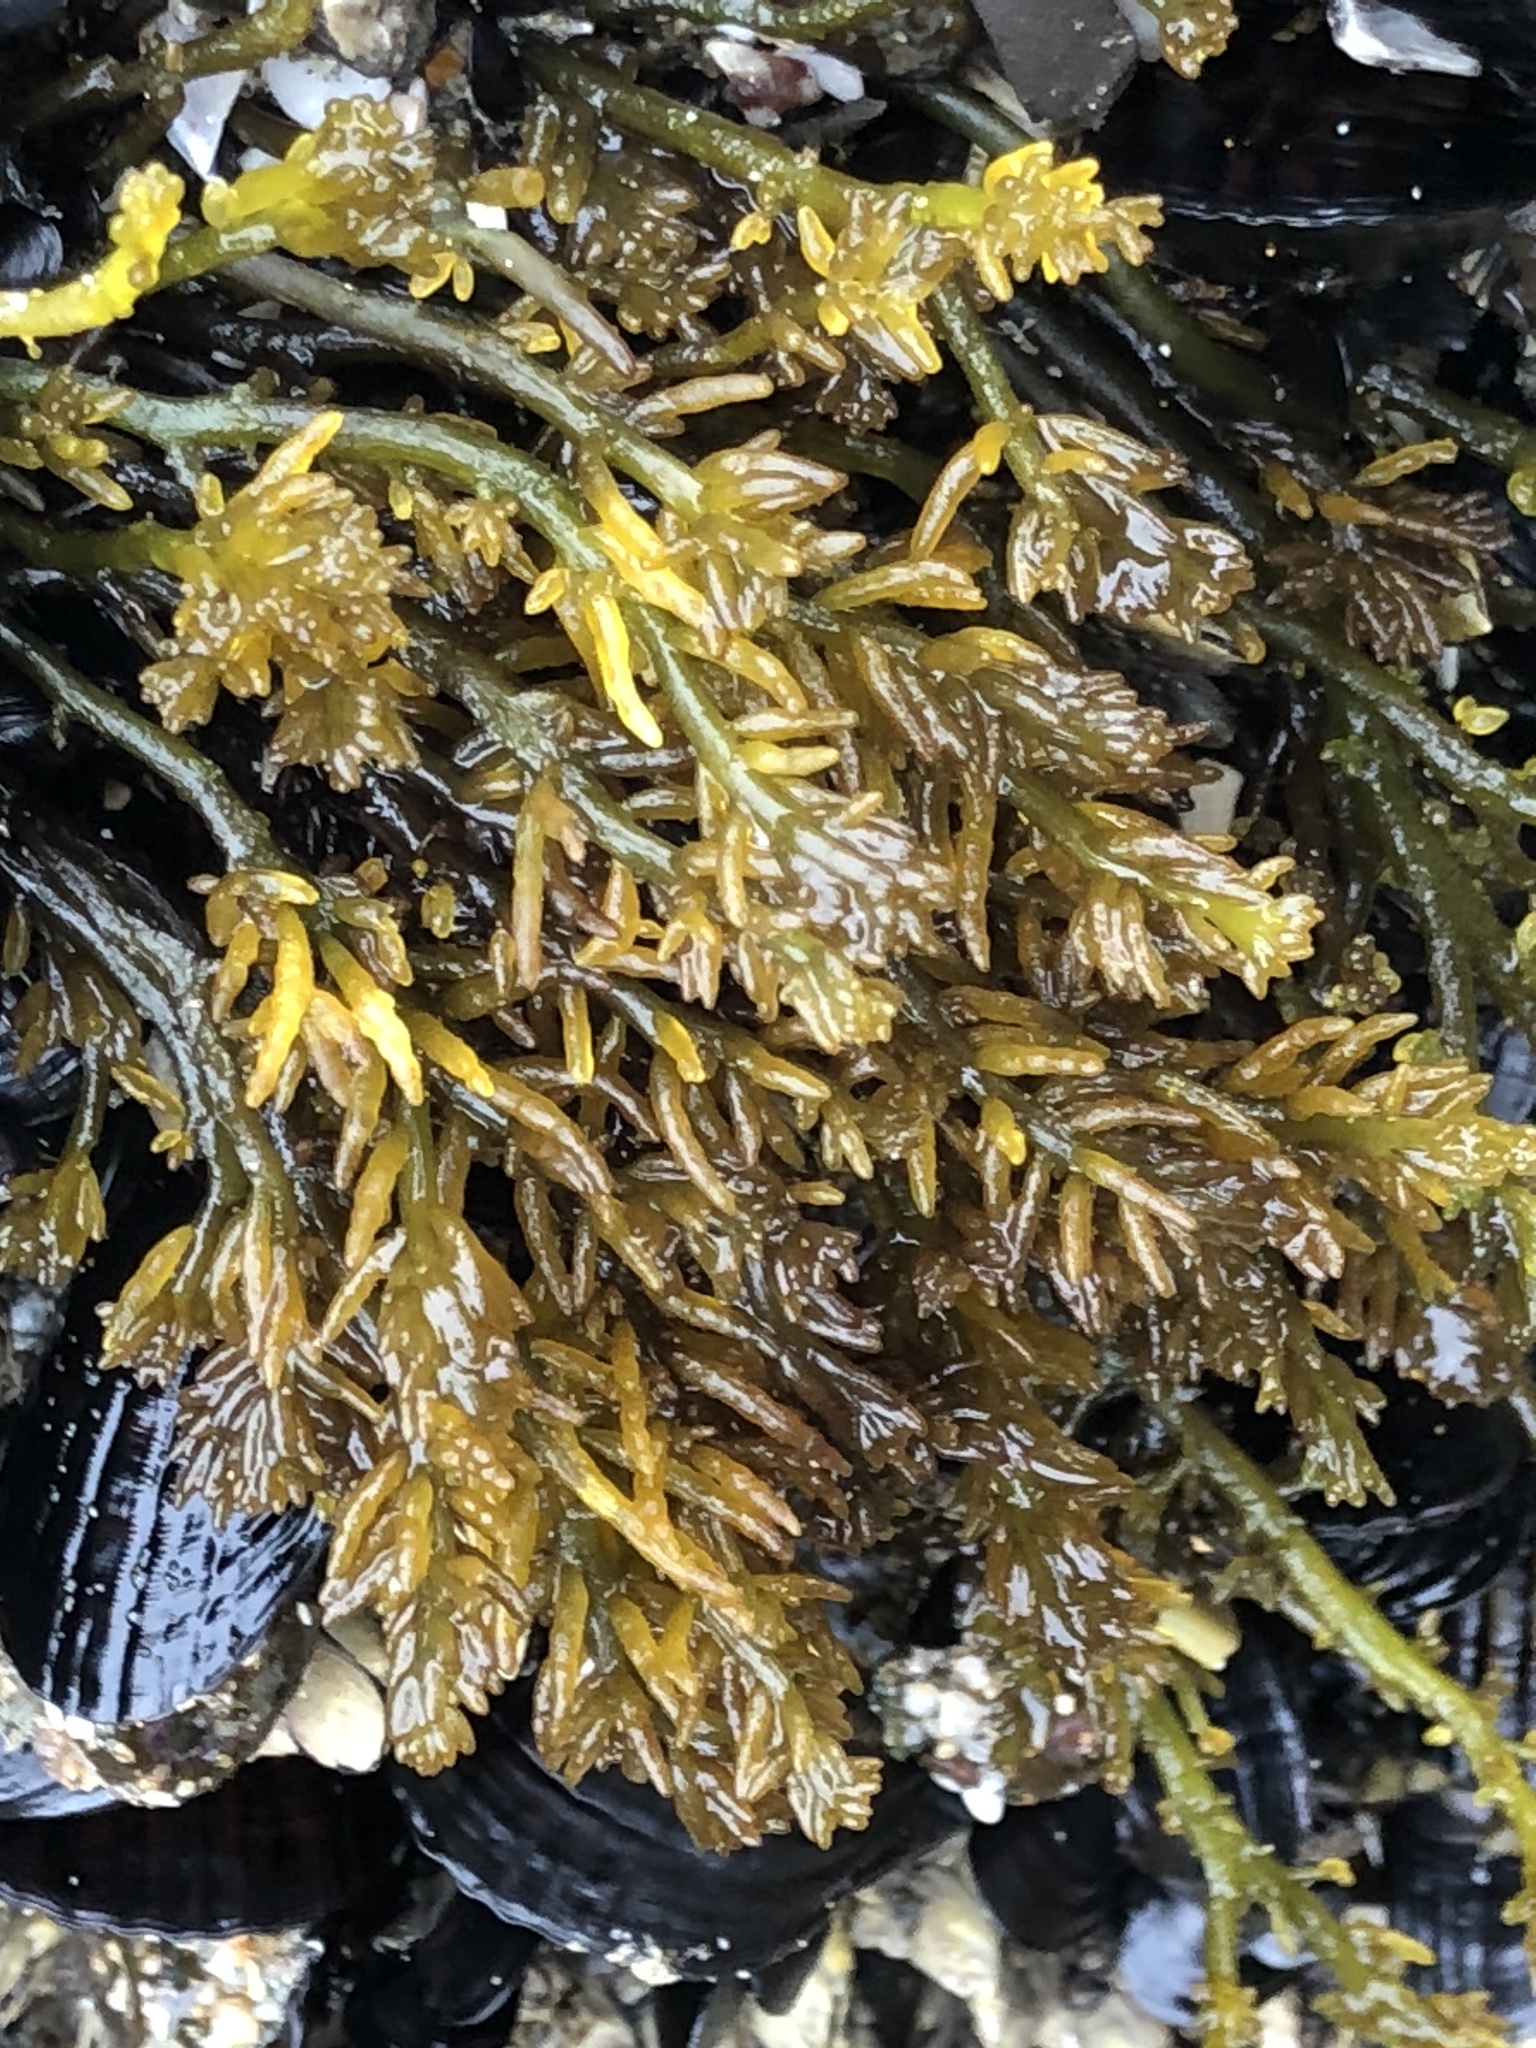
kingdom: Plantae
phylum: Rhodophyta
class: Florideophyceae
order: Rhodymeniales
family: Champiaceae
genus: Neogastroclonium
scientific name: Neogastroclonium subarticulatum
